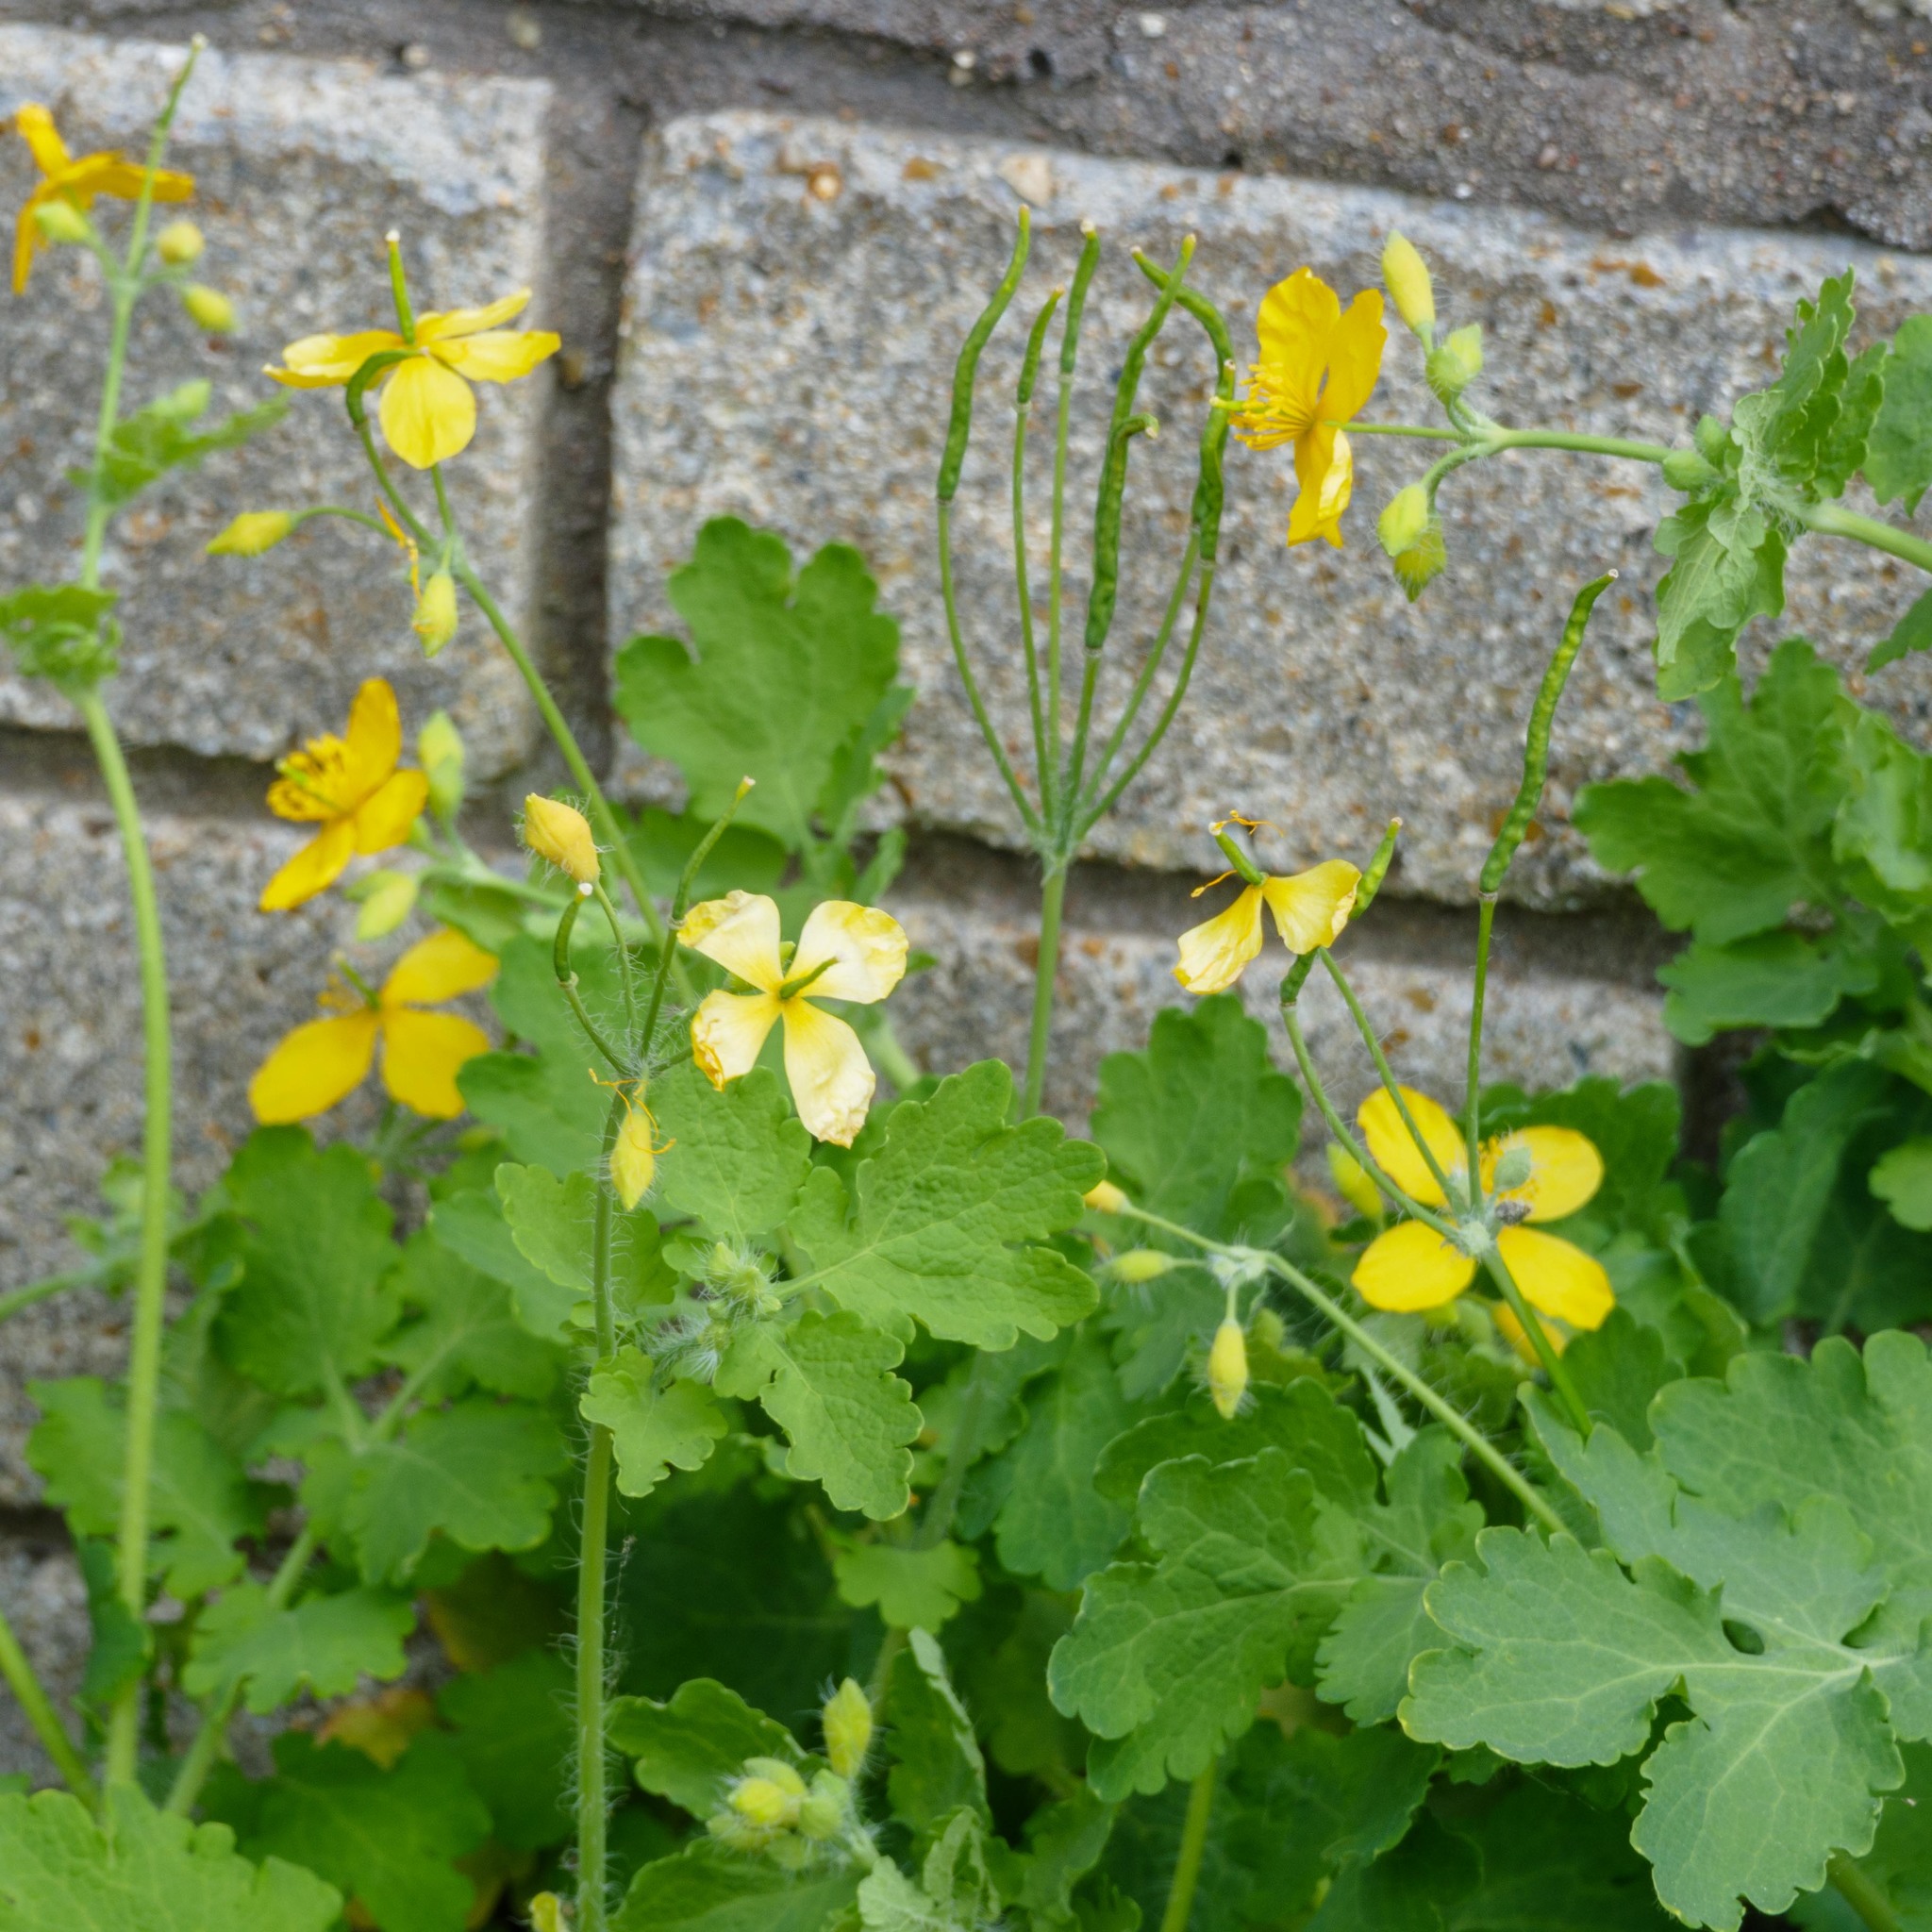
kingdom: Plantae
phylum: Tracheophyta
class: Magnoliopsida
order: Ranunculales
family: Papaveraceae
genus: Chelidonium
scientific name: Chelidonium majus
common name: Greater celandine
